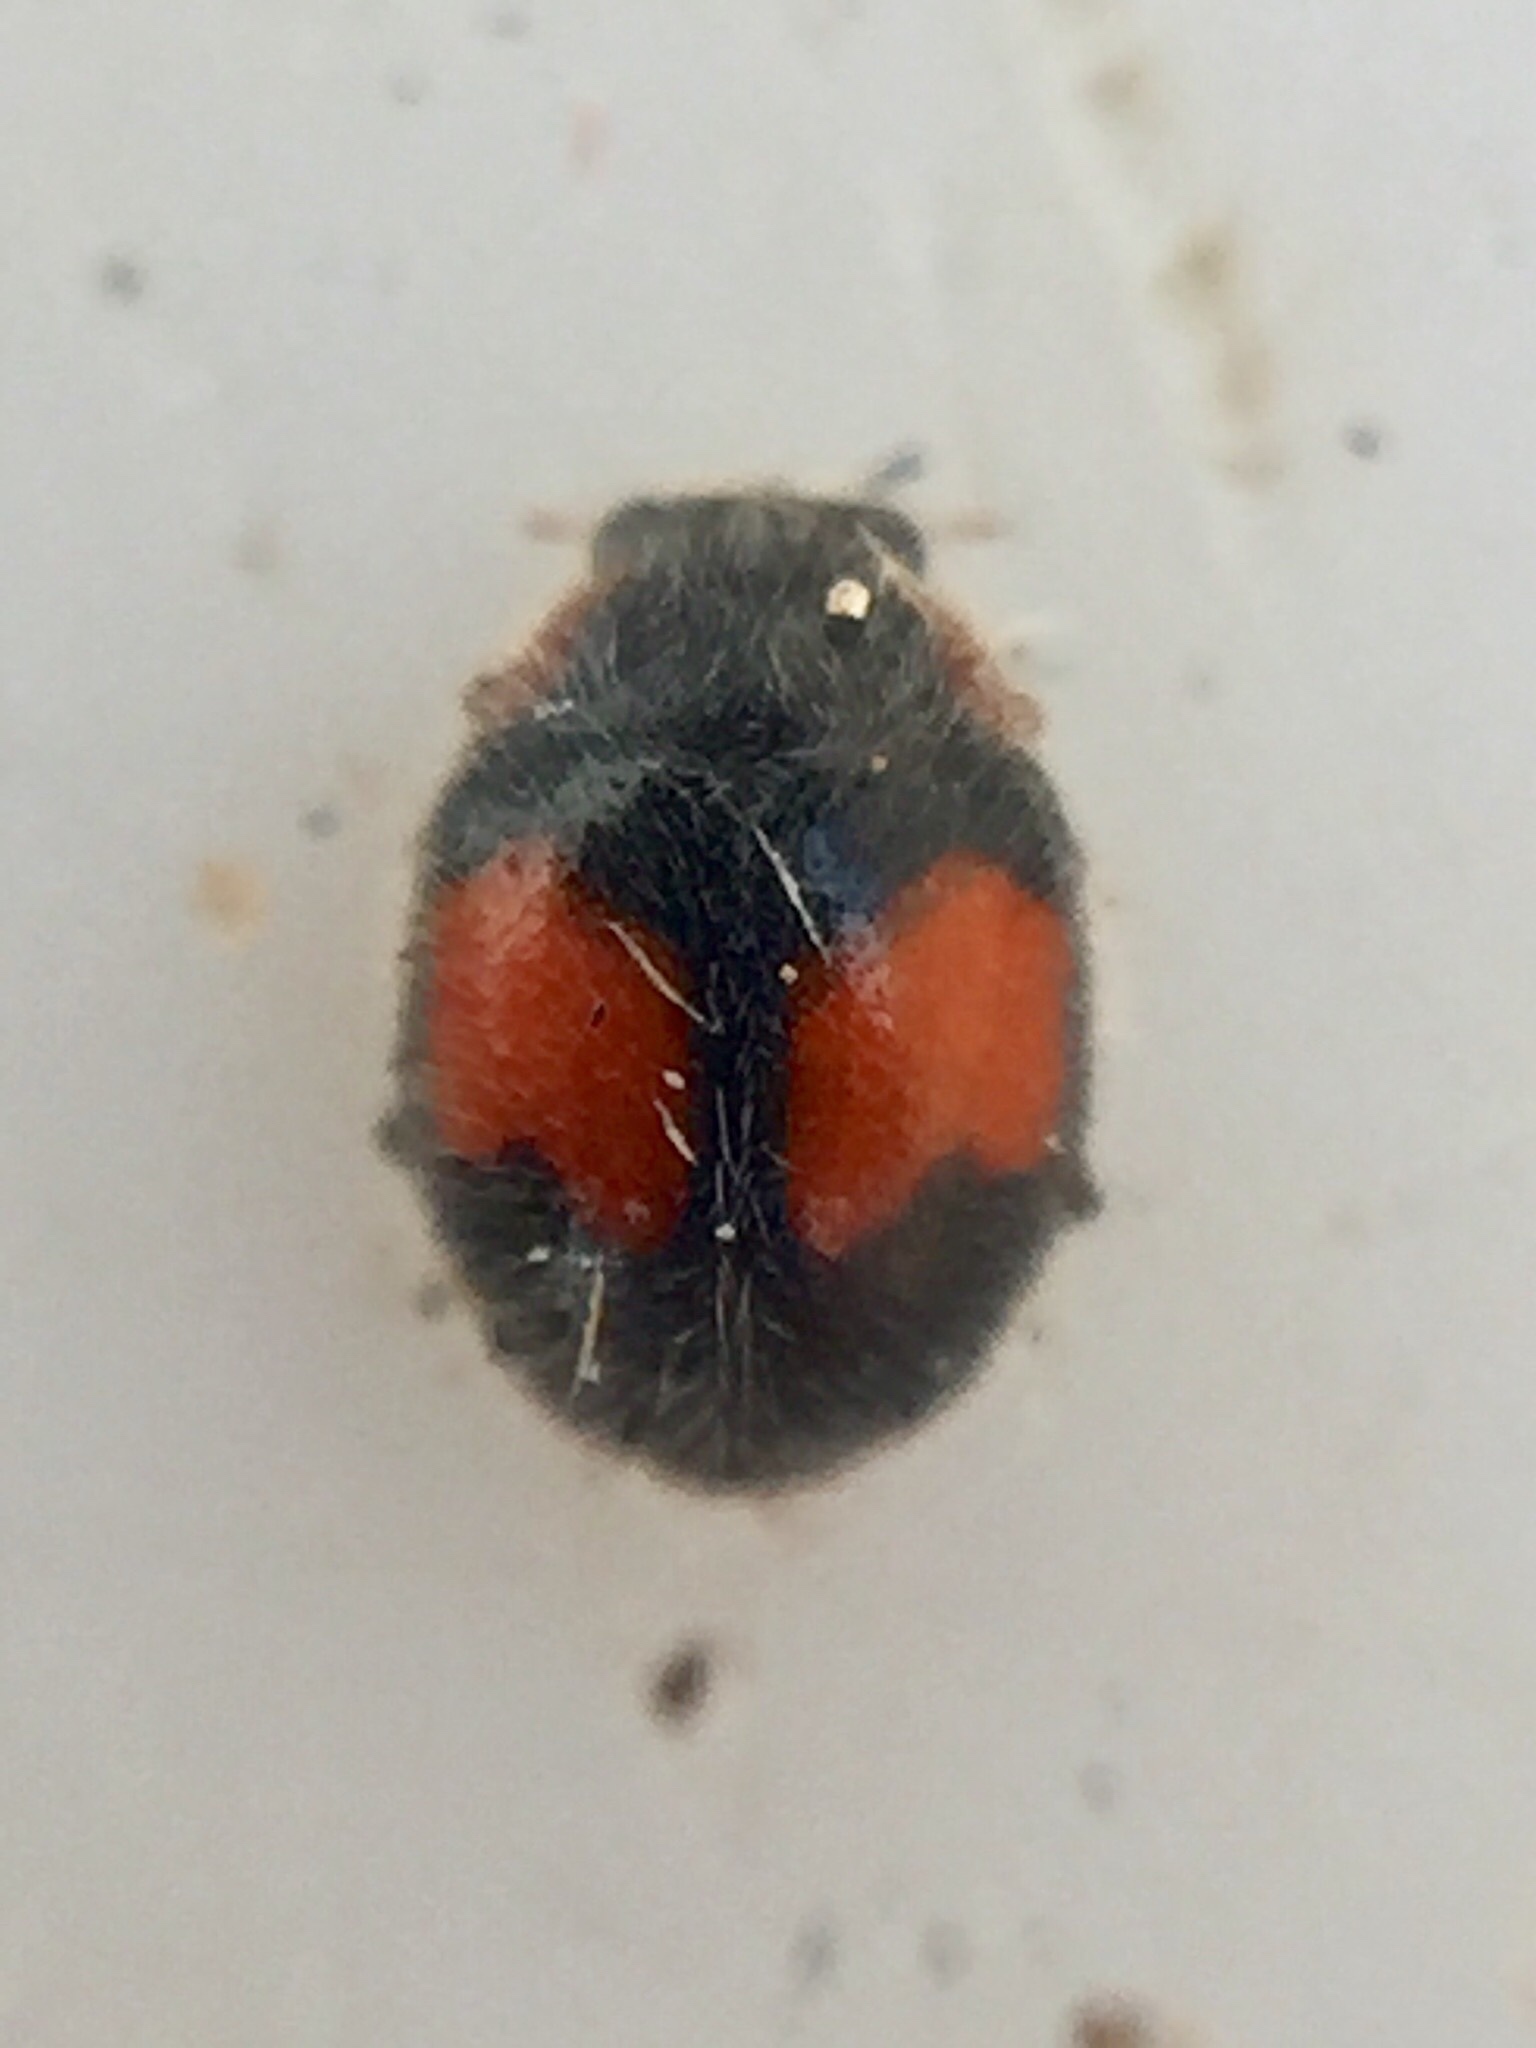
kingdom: Animalia
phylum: Arthropoda
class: Insecta
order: Coleoptera
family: Coccinellidae
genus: Scymnus
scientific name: Scymnus notescens
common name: Minute two-spotted ladybird beetle
